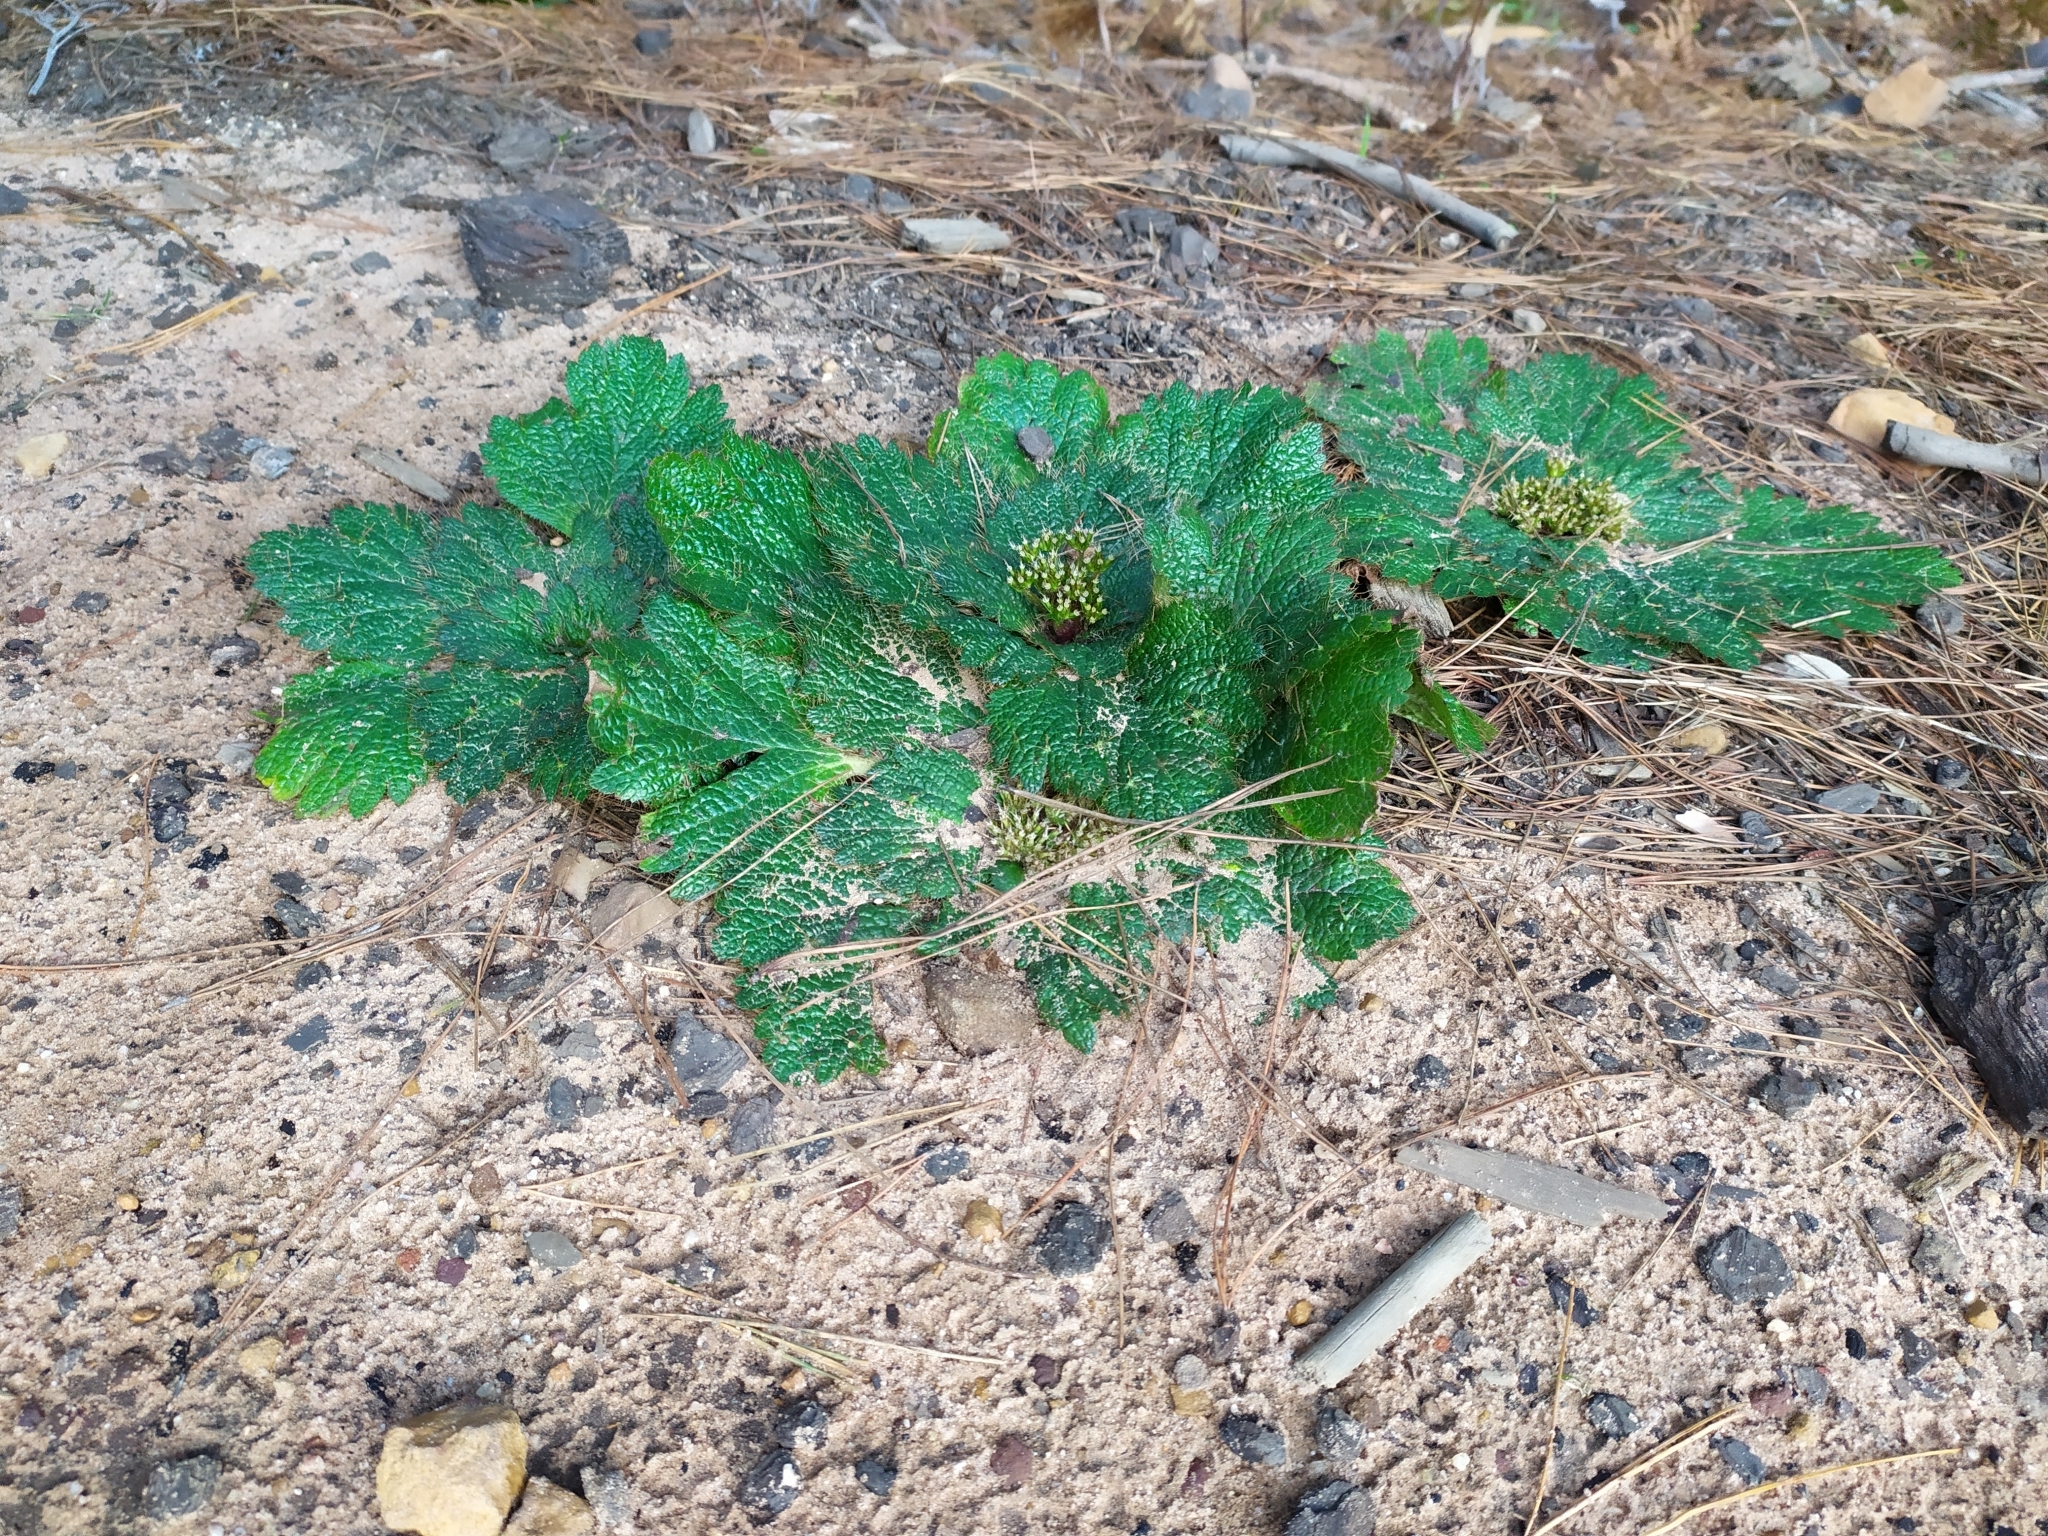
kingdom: Plantae
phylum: Tracheophyta
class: Magnoliopsida
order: Apiales
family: Apiaceae
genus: Arctopus
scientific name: Arctopus echinatus
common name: Platdoring
